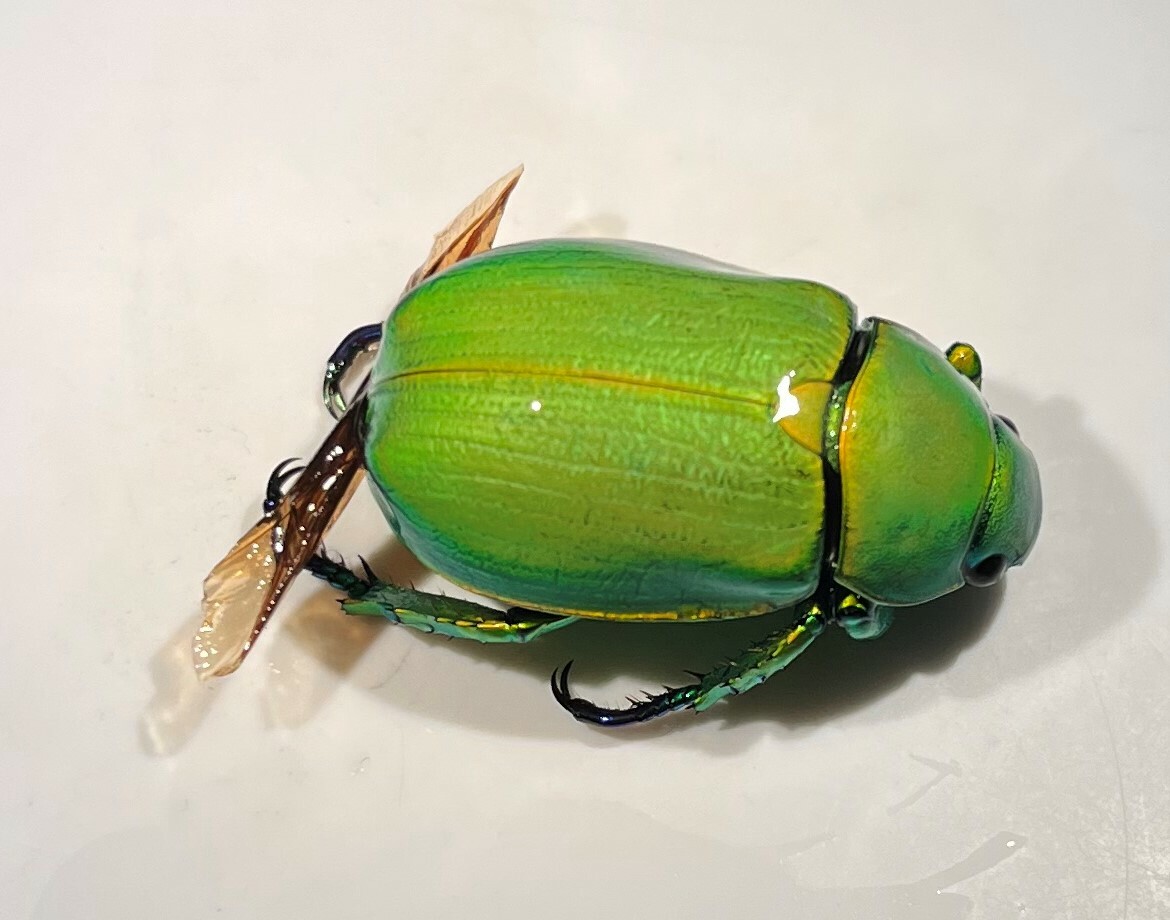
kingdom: Animalia
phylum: Arthropoda
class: Insecta
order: Coleoptera
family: Scarabaeidae
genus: Chrysina
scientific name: Chrysina woodi
